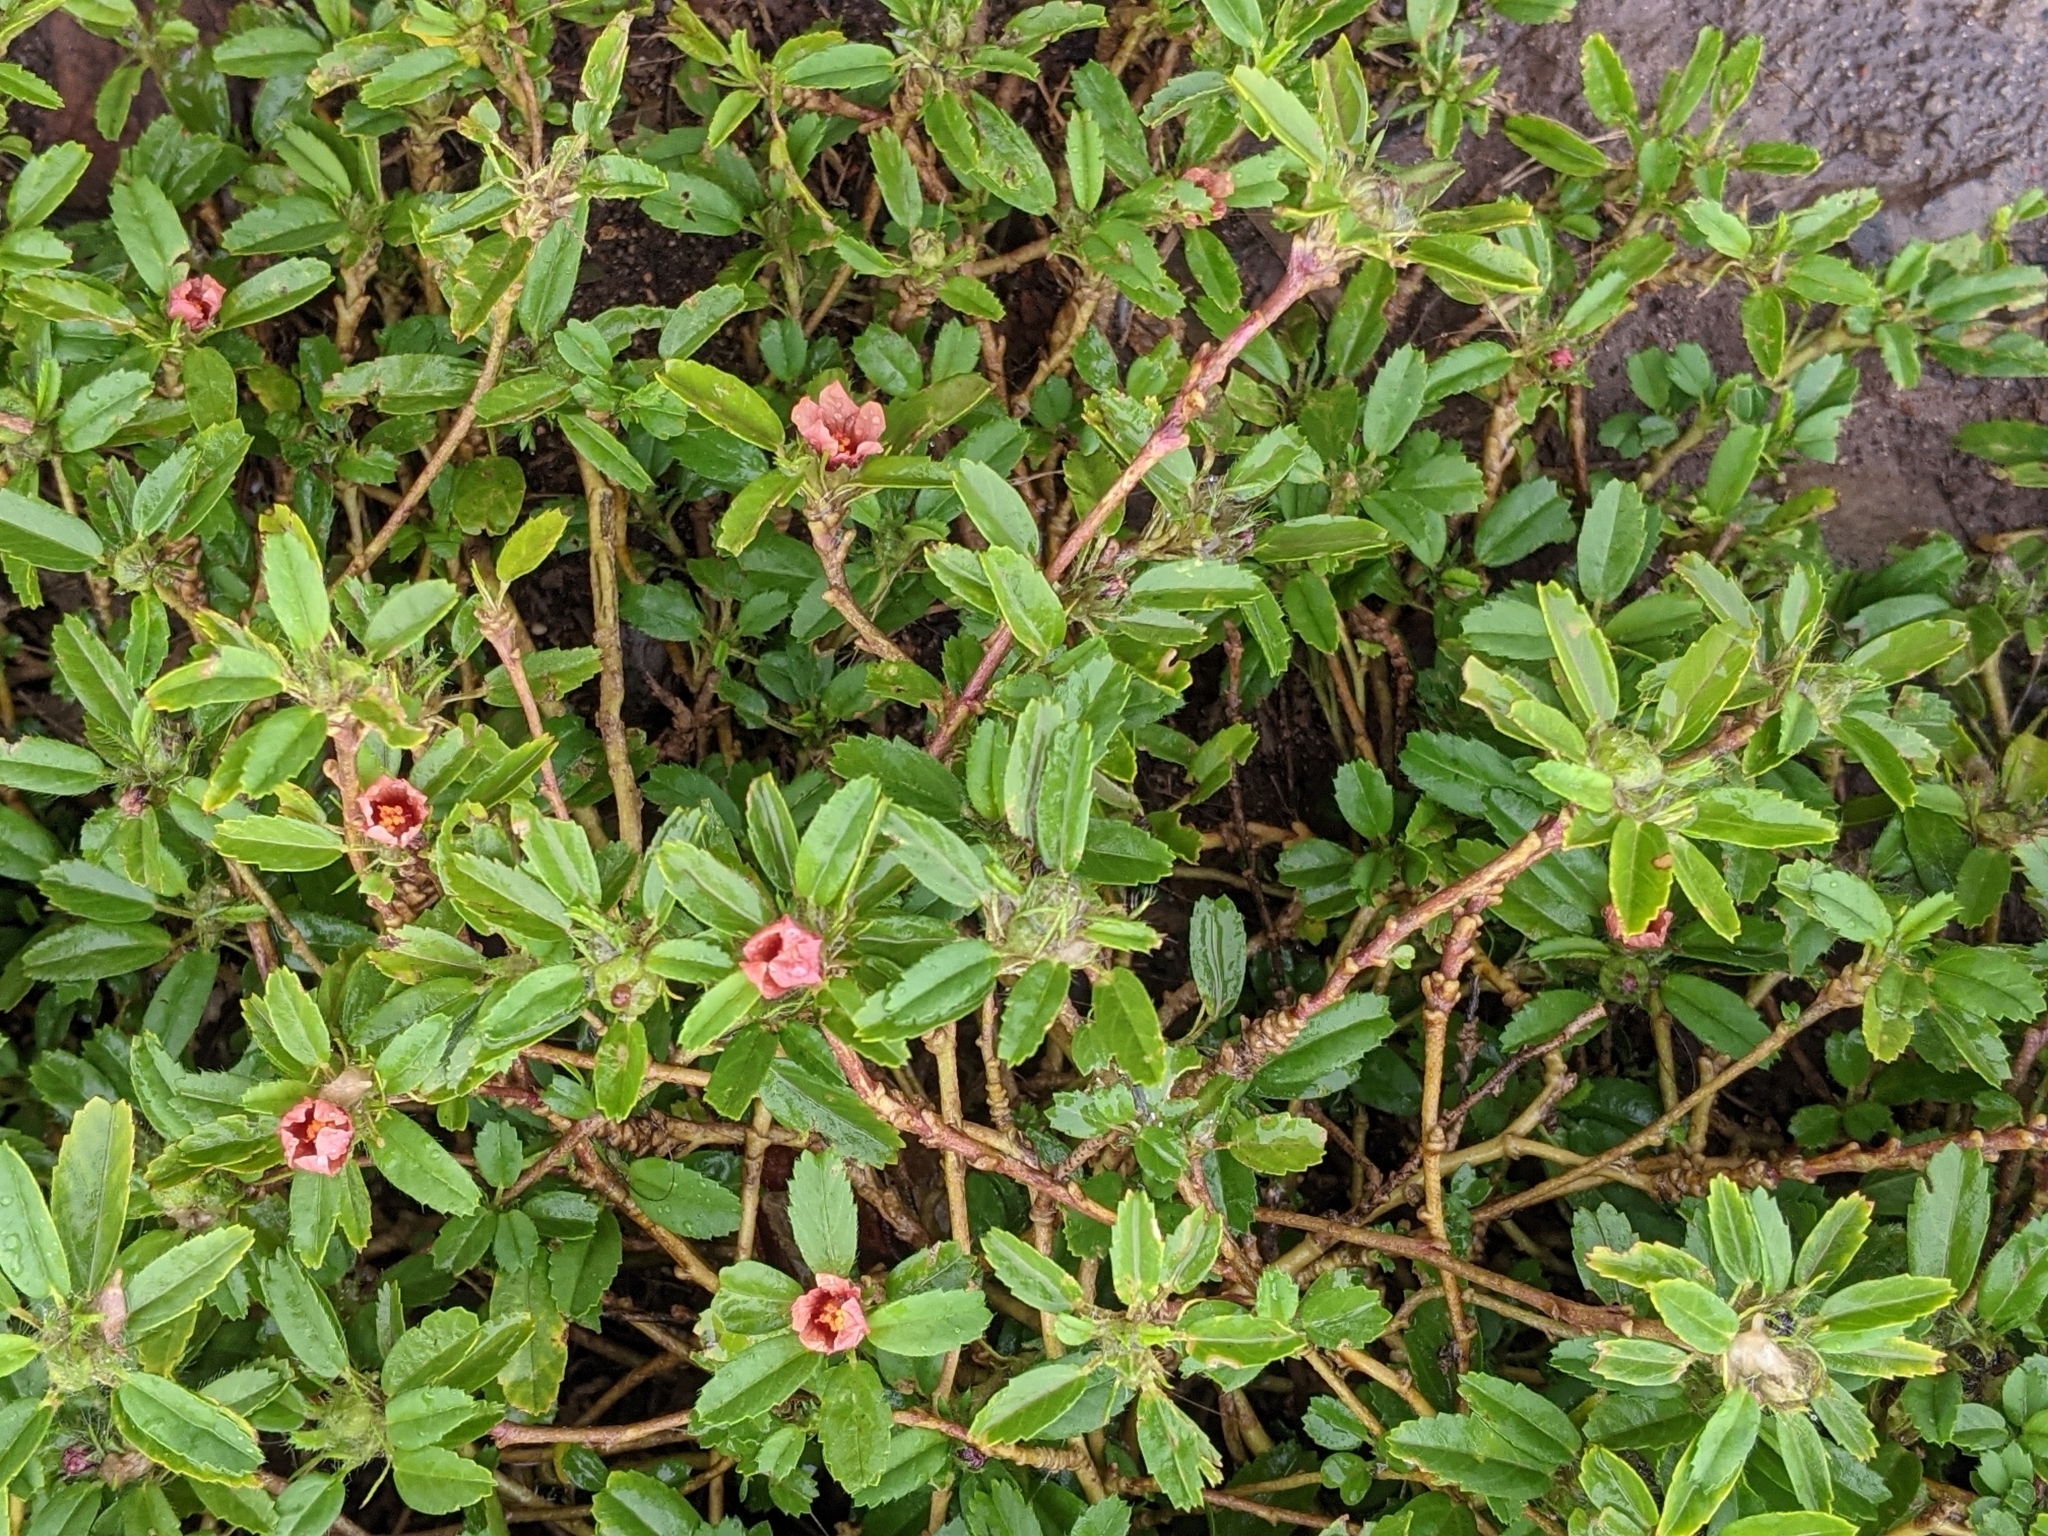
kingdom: Plantae
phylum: Tracheophyta
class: Magnoliopsida
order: Malvales
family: Malvaceae
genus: Sida
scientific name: Sida ciliaris
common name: Bracted fanpetals
